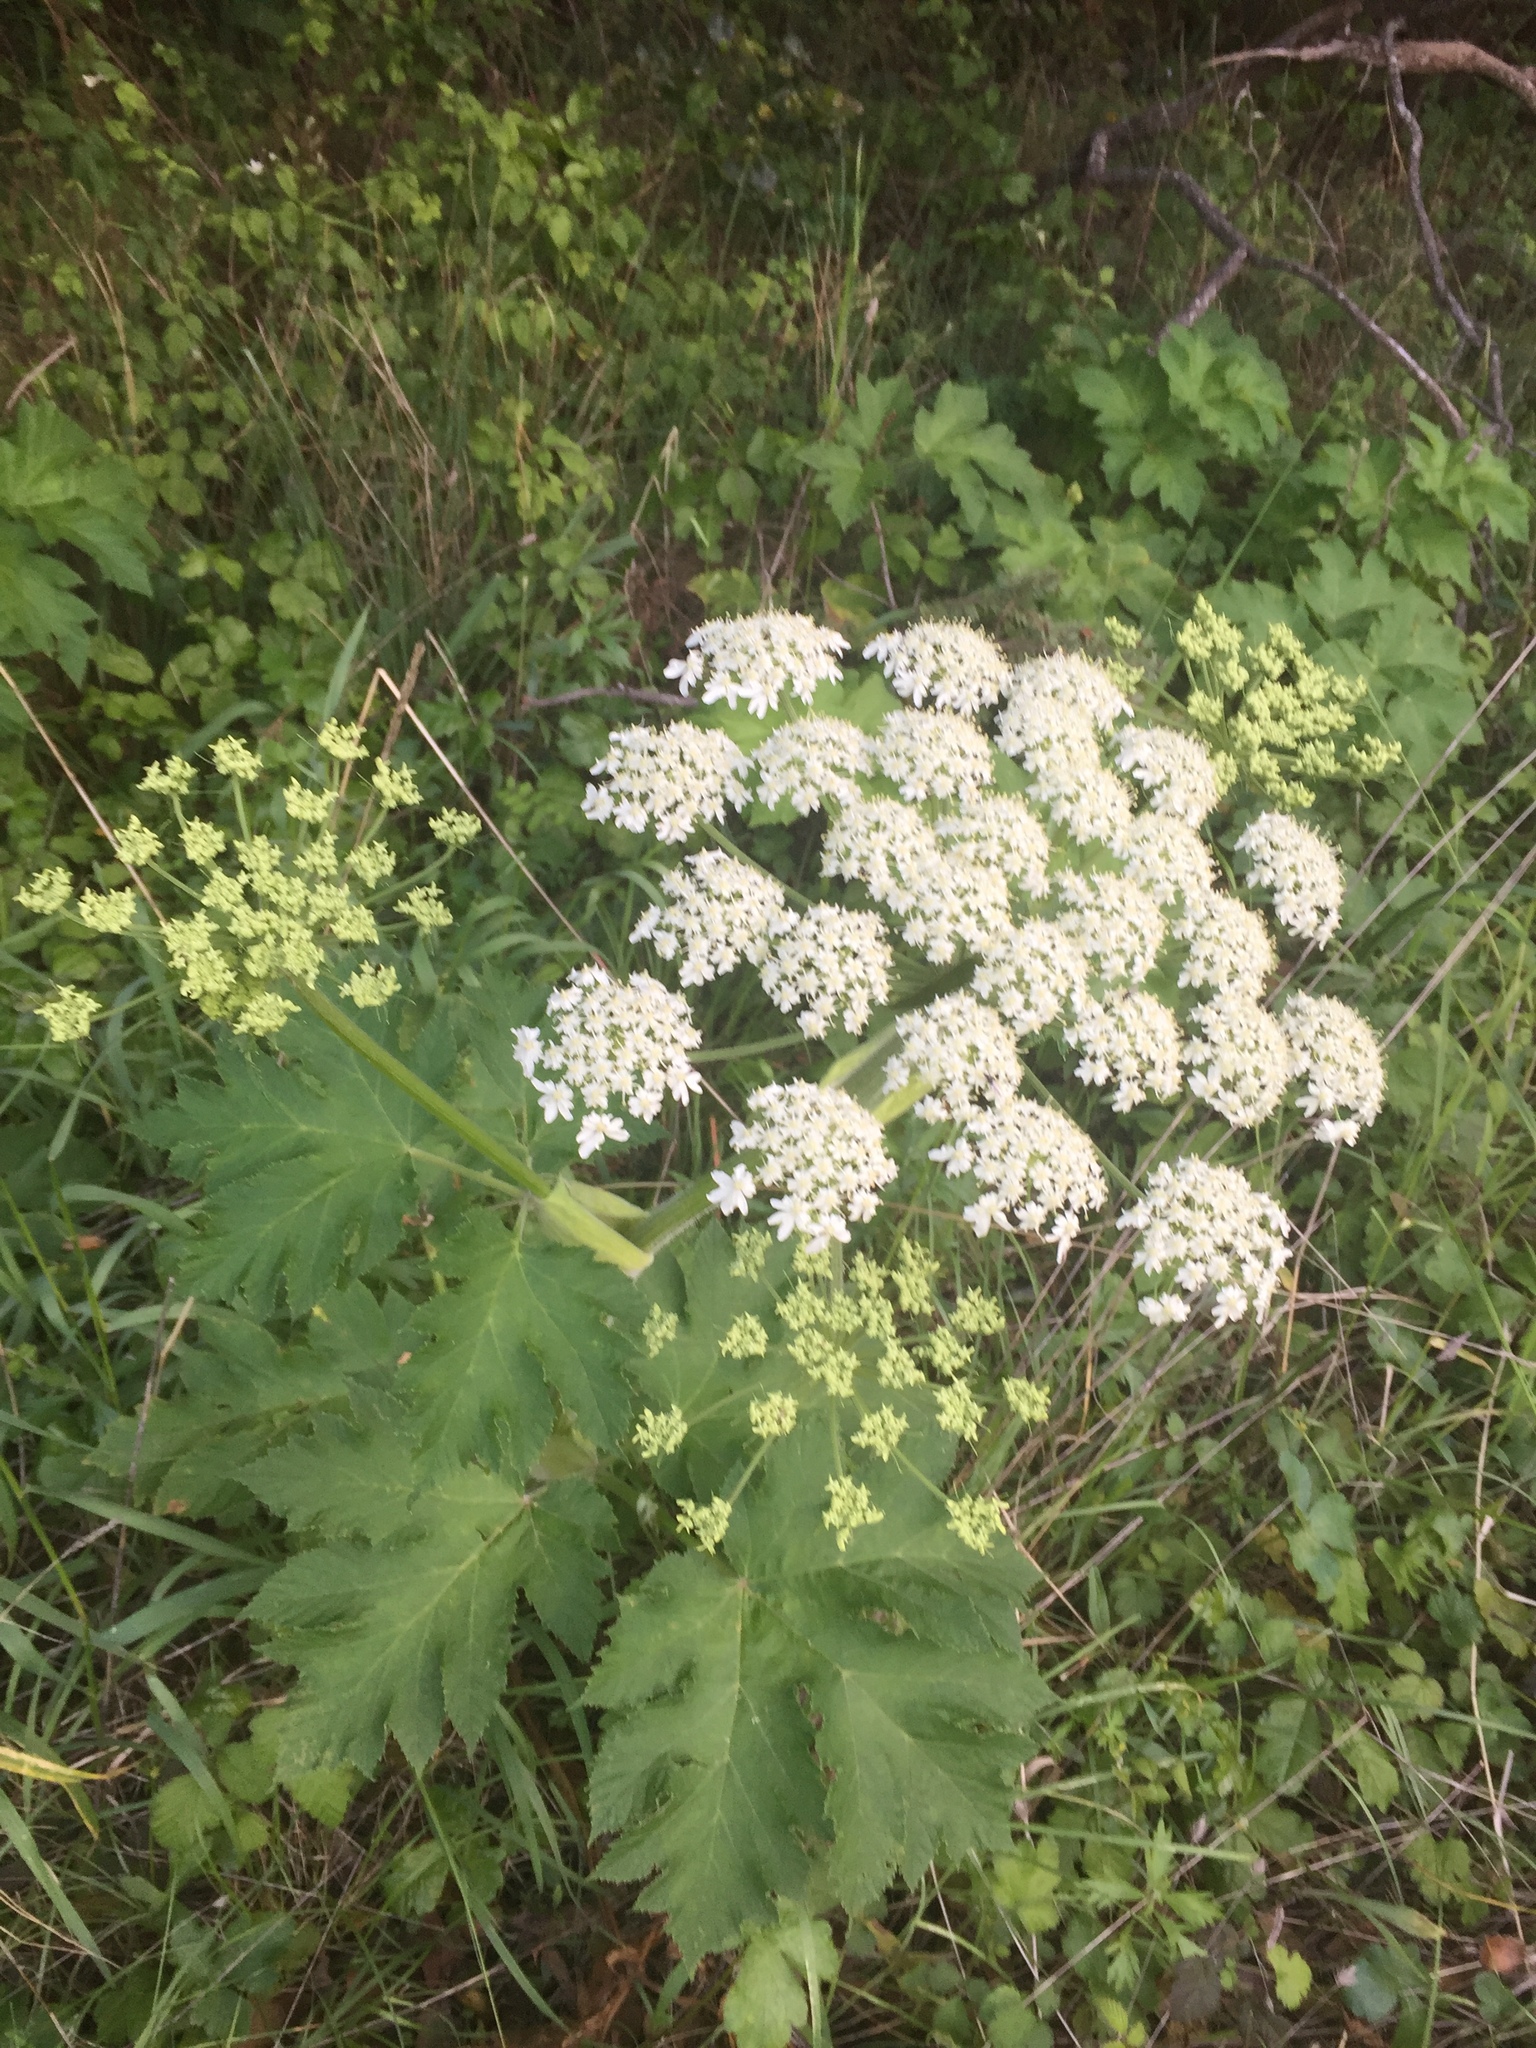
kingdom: Plantae
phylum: Tracheophyta
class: Magnoliopsida
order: Apiales
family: Apiaceae
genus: Heracleum
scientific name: Heracleum maximum
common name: American cow parsnip
